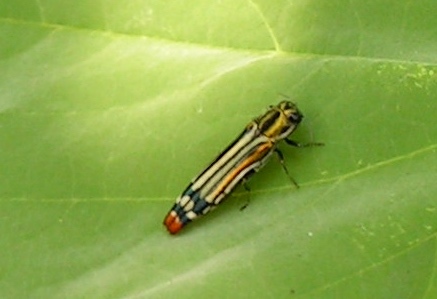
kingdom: Animalia
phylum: Arthropoda
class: Insecta
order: Coleoptera
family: Buprestidae
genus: Agrilus
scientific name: Agrilus catherinae
